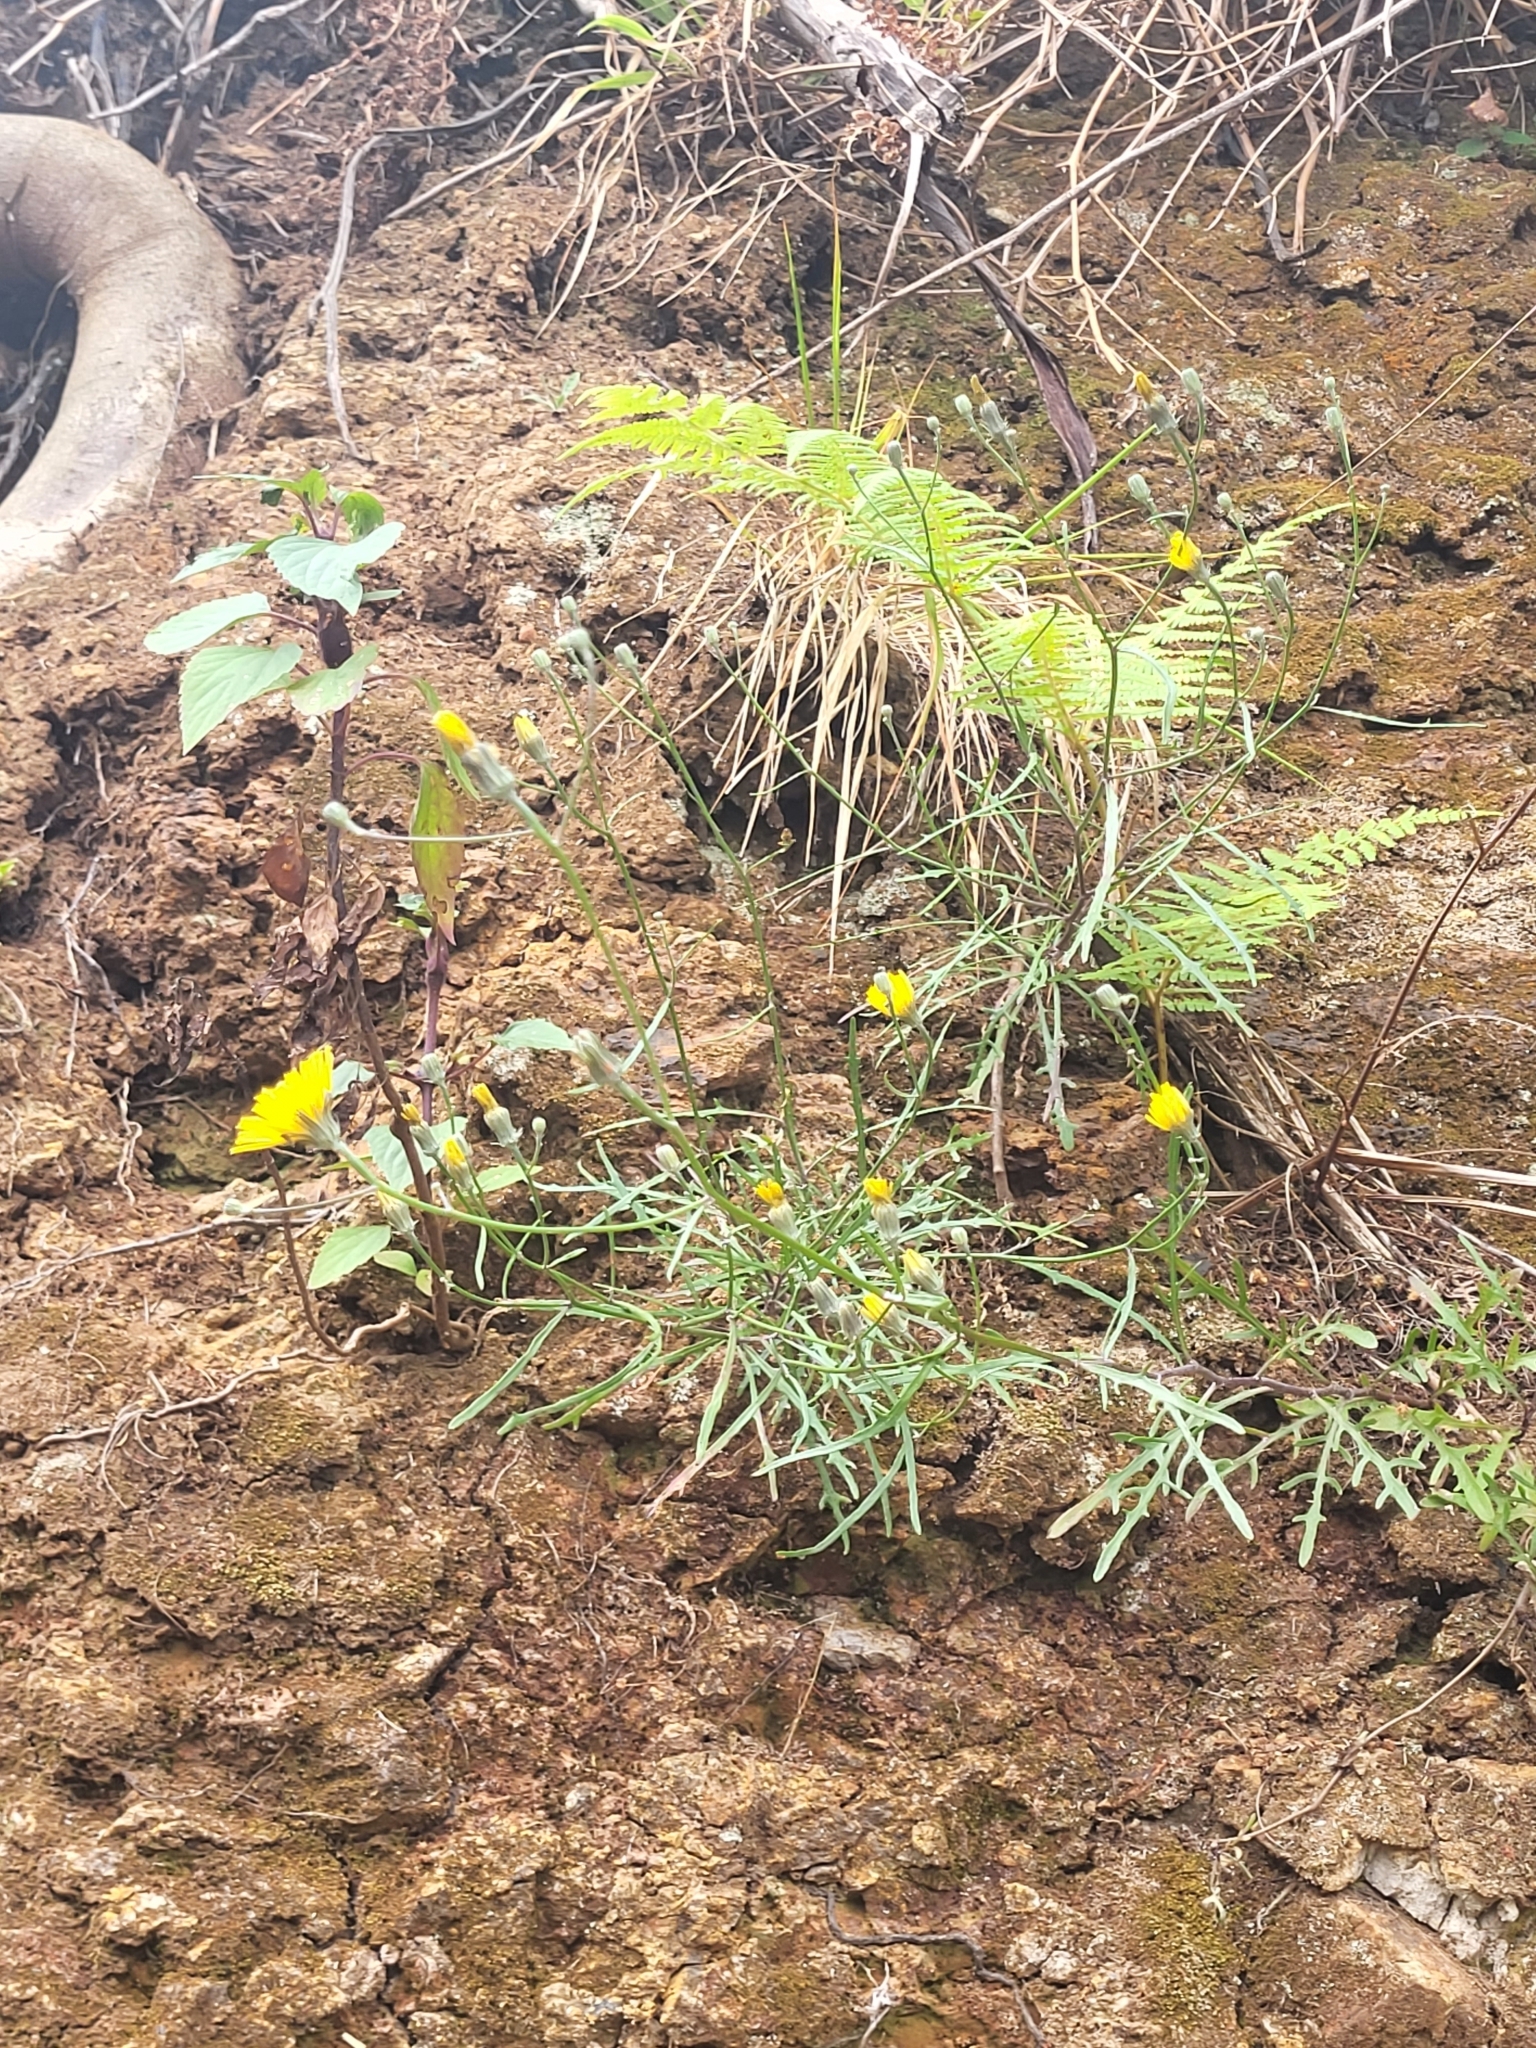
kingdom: Plantae
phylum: Tracheophyta
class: Magnoliopsida
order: Asterales
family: Asteraceae
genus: Tolpis
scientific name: Tolpis succulenta
